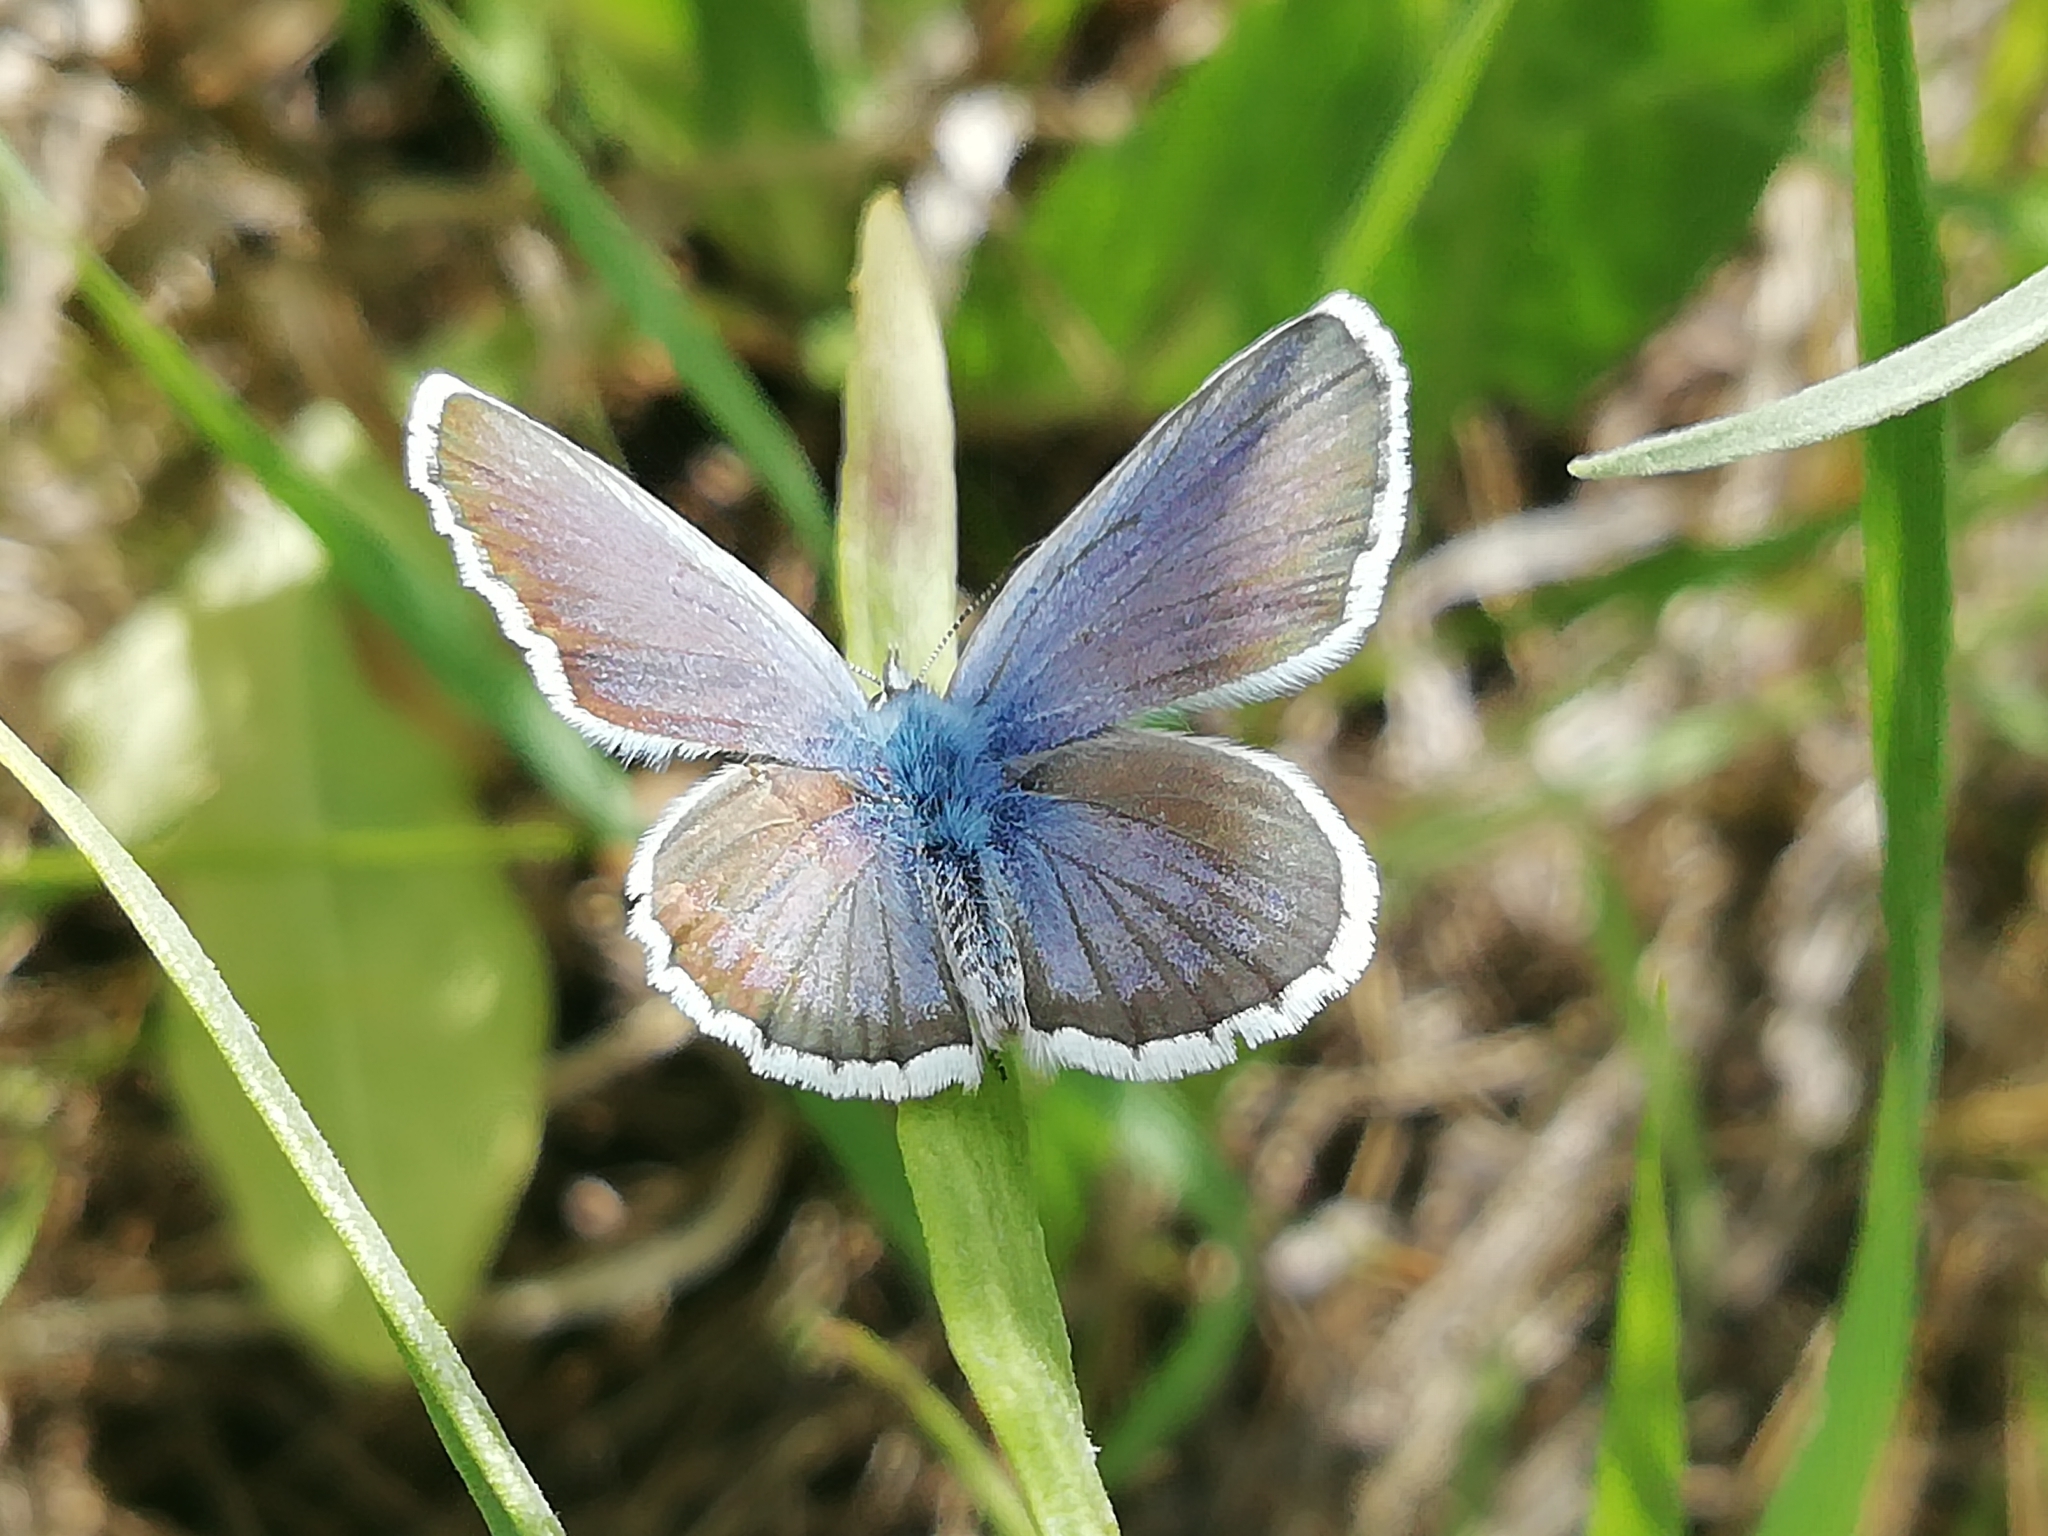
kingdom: Animalia
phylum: Arthropoda
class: Insecta
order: Lepidoptera
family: Lycaenidae
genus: Plebejus
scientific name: Plebejus argus
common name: Silver-studded blue
